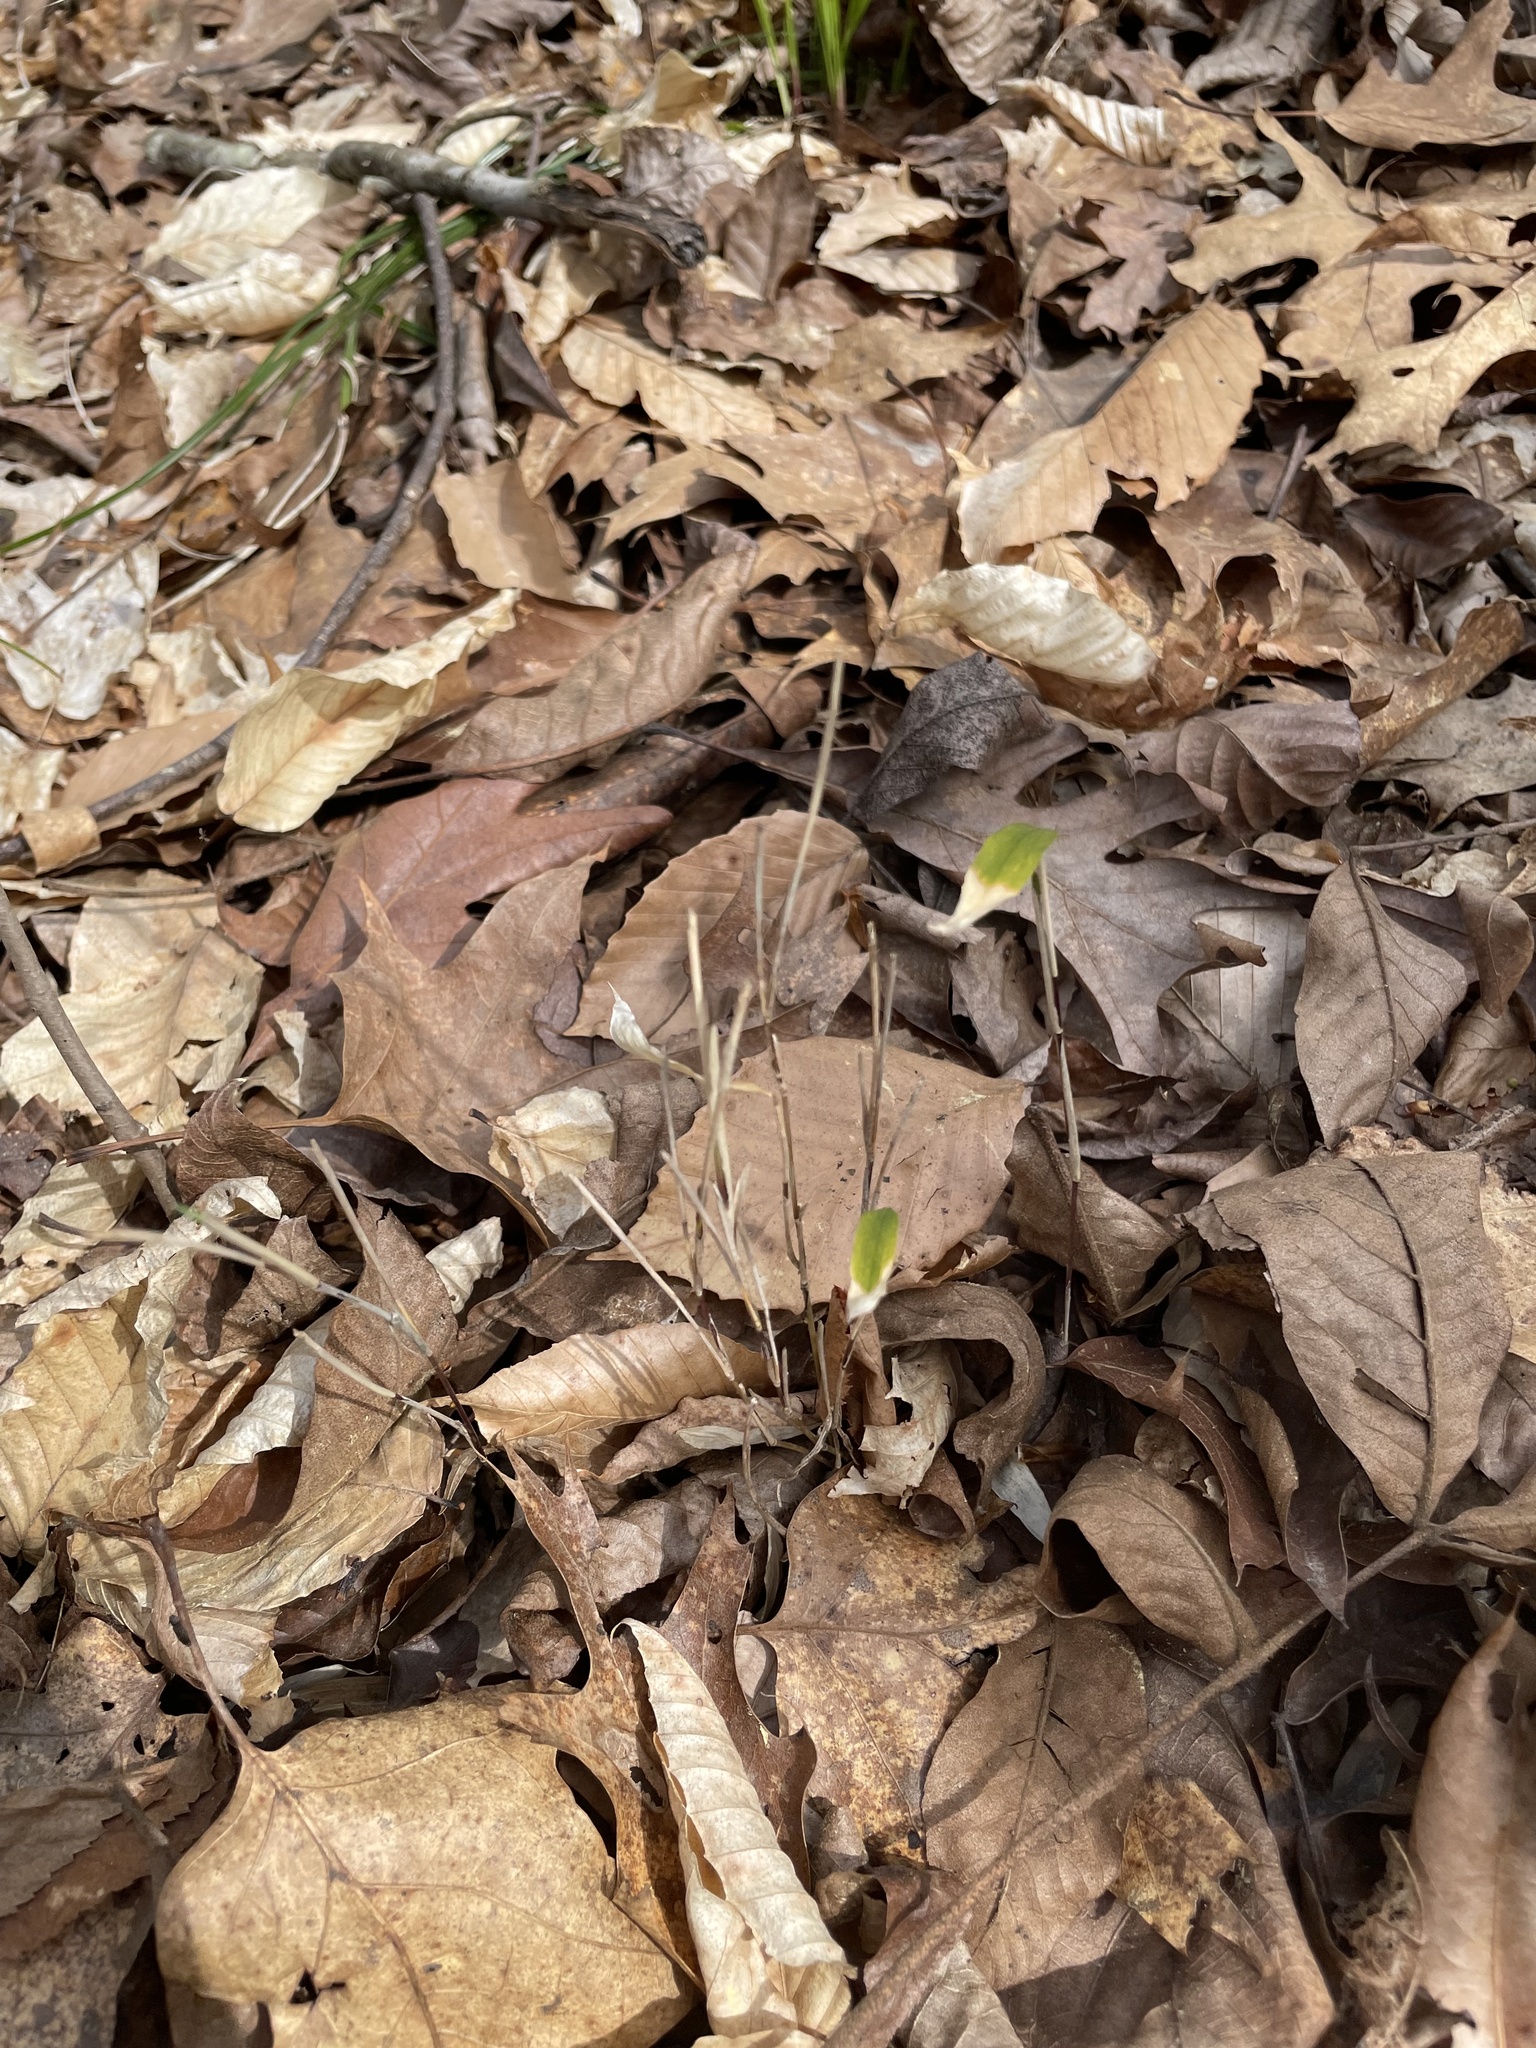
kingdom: Plantae
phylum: Tracheophyta
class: Liliopsida
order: Poales
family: Poaceae
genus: Arundinaria
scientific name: Arundinaria appalachiana
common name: Hill cane
